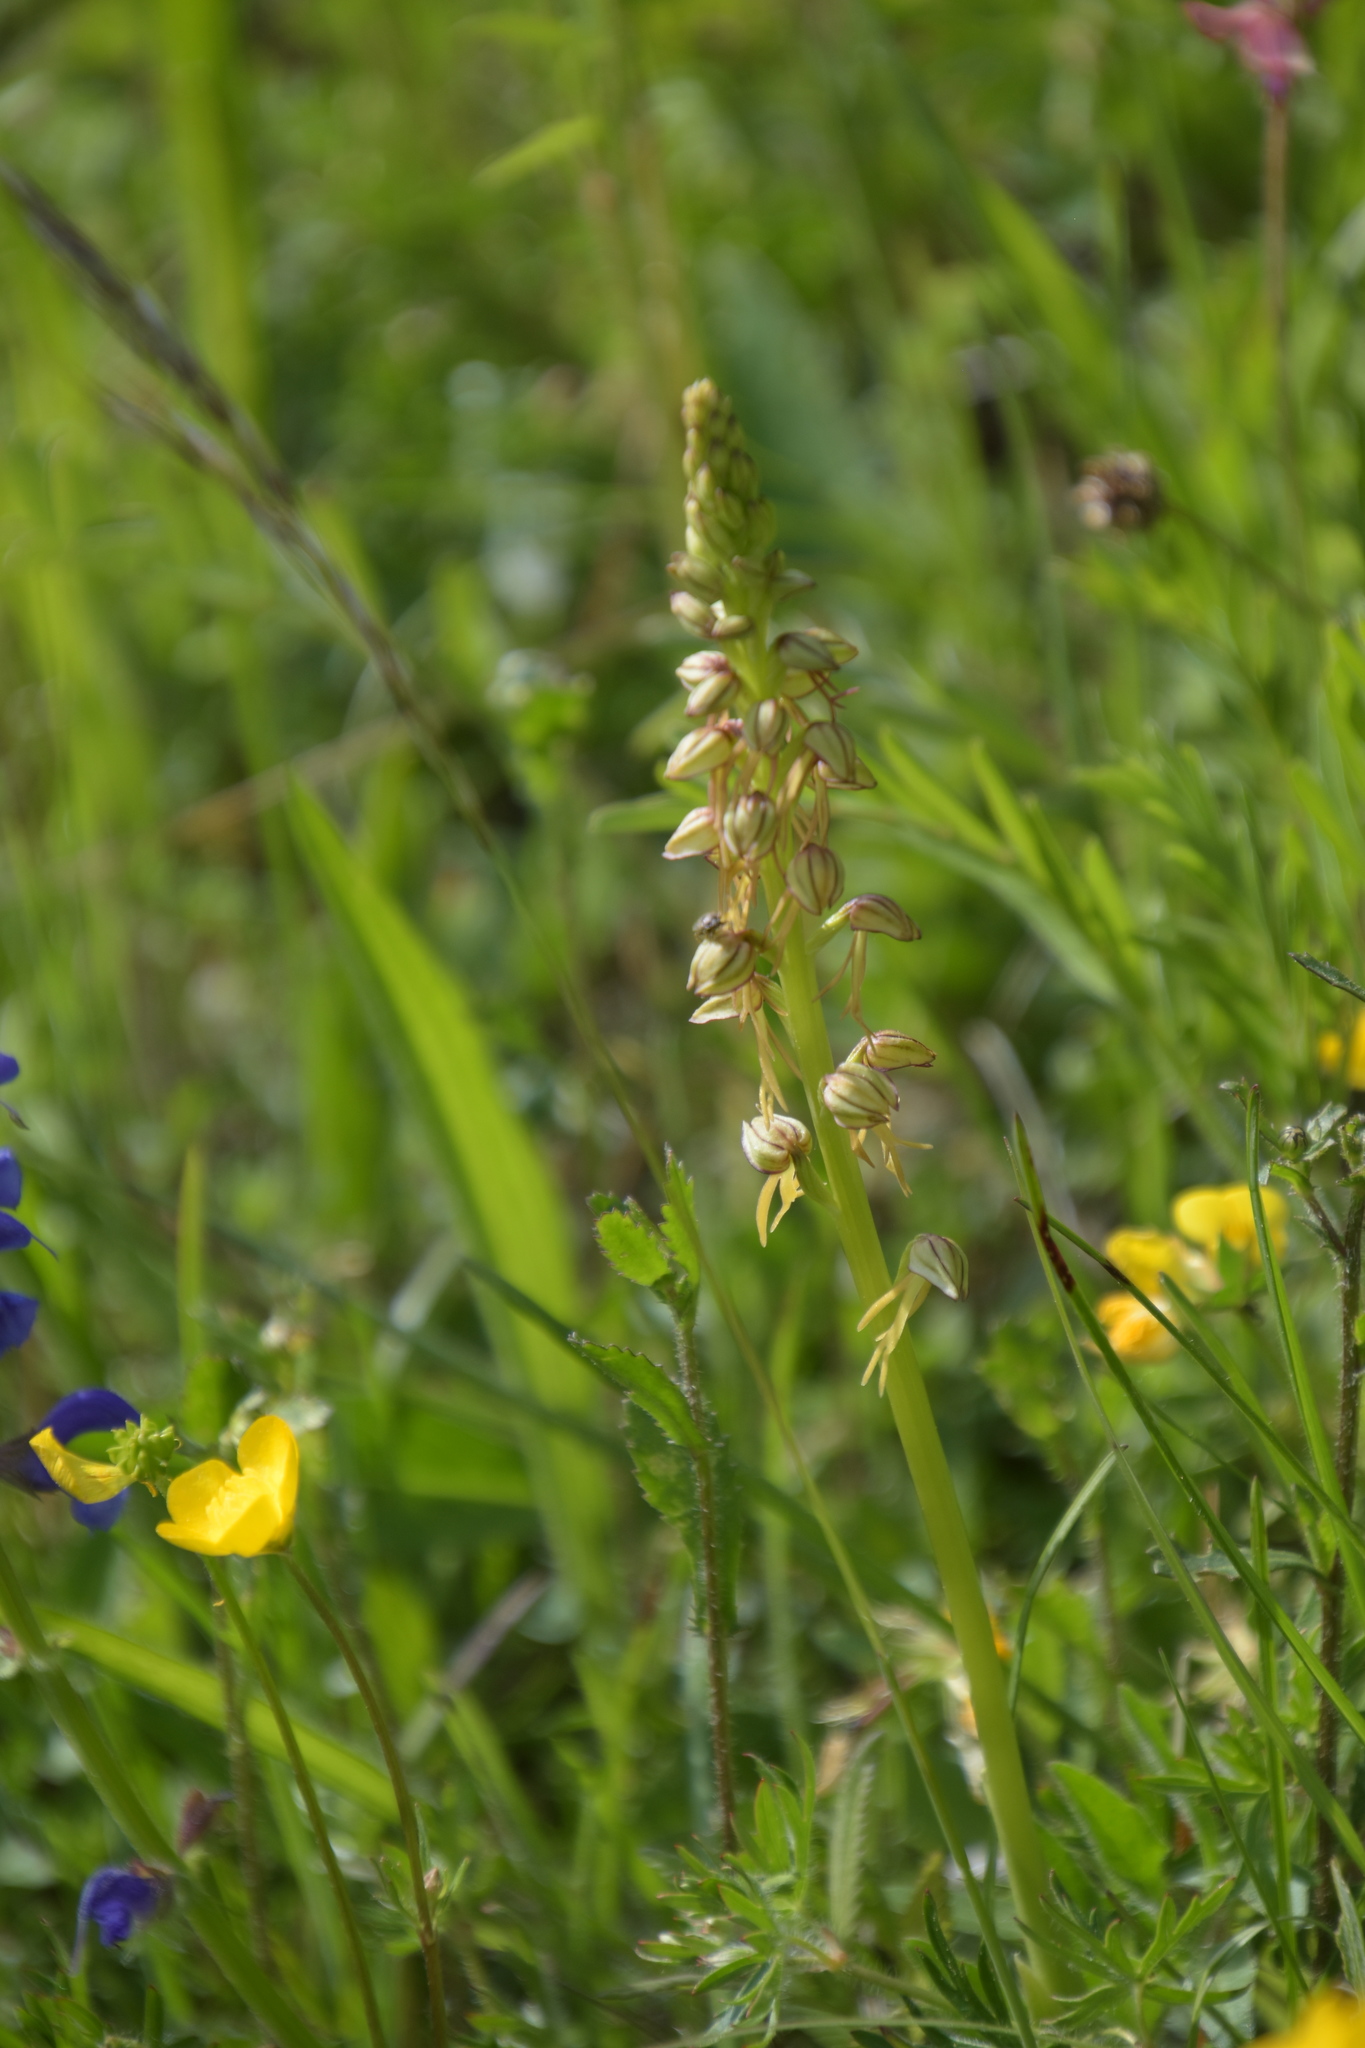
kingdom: Plantae
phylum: Tracheophyta
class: Liliopsida
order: Asparagales
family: Orchidaceae
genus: Orchis
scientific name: Orchis anthropophora
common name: Man orchid
